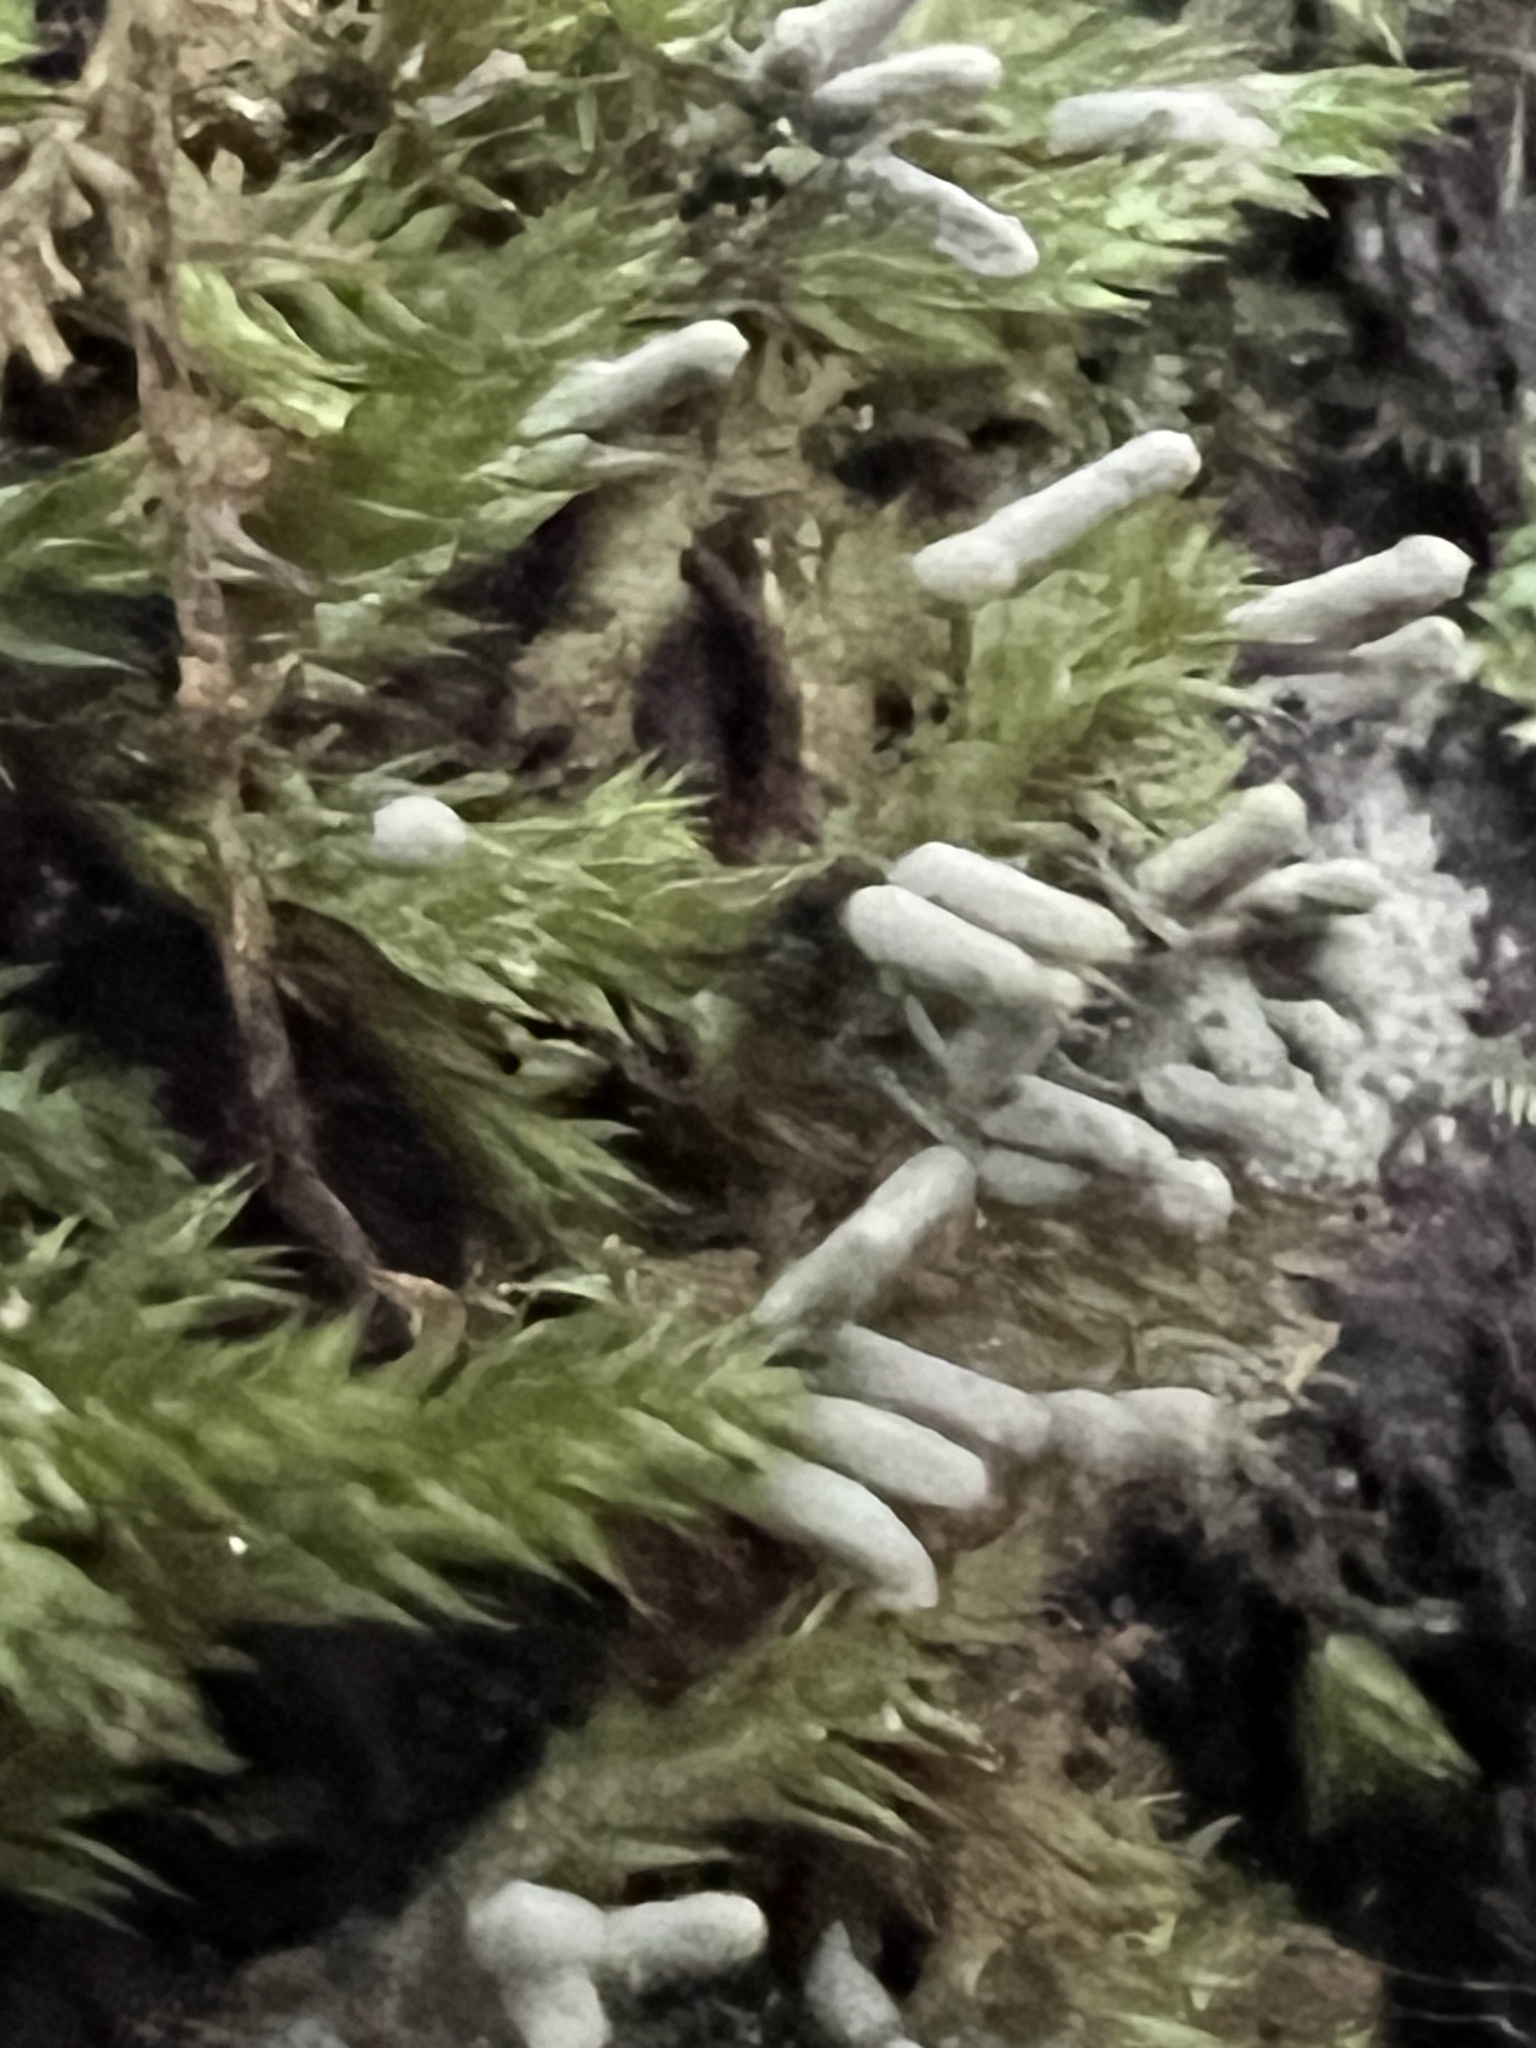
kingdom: Protozoa
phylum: Mycetozoa
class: Myxomycetes
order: Trichiales
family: Arcyriaceae
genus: Arcyria
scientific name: Arcyria cinerea
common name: White carnival candy slime mold
